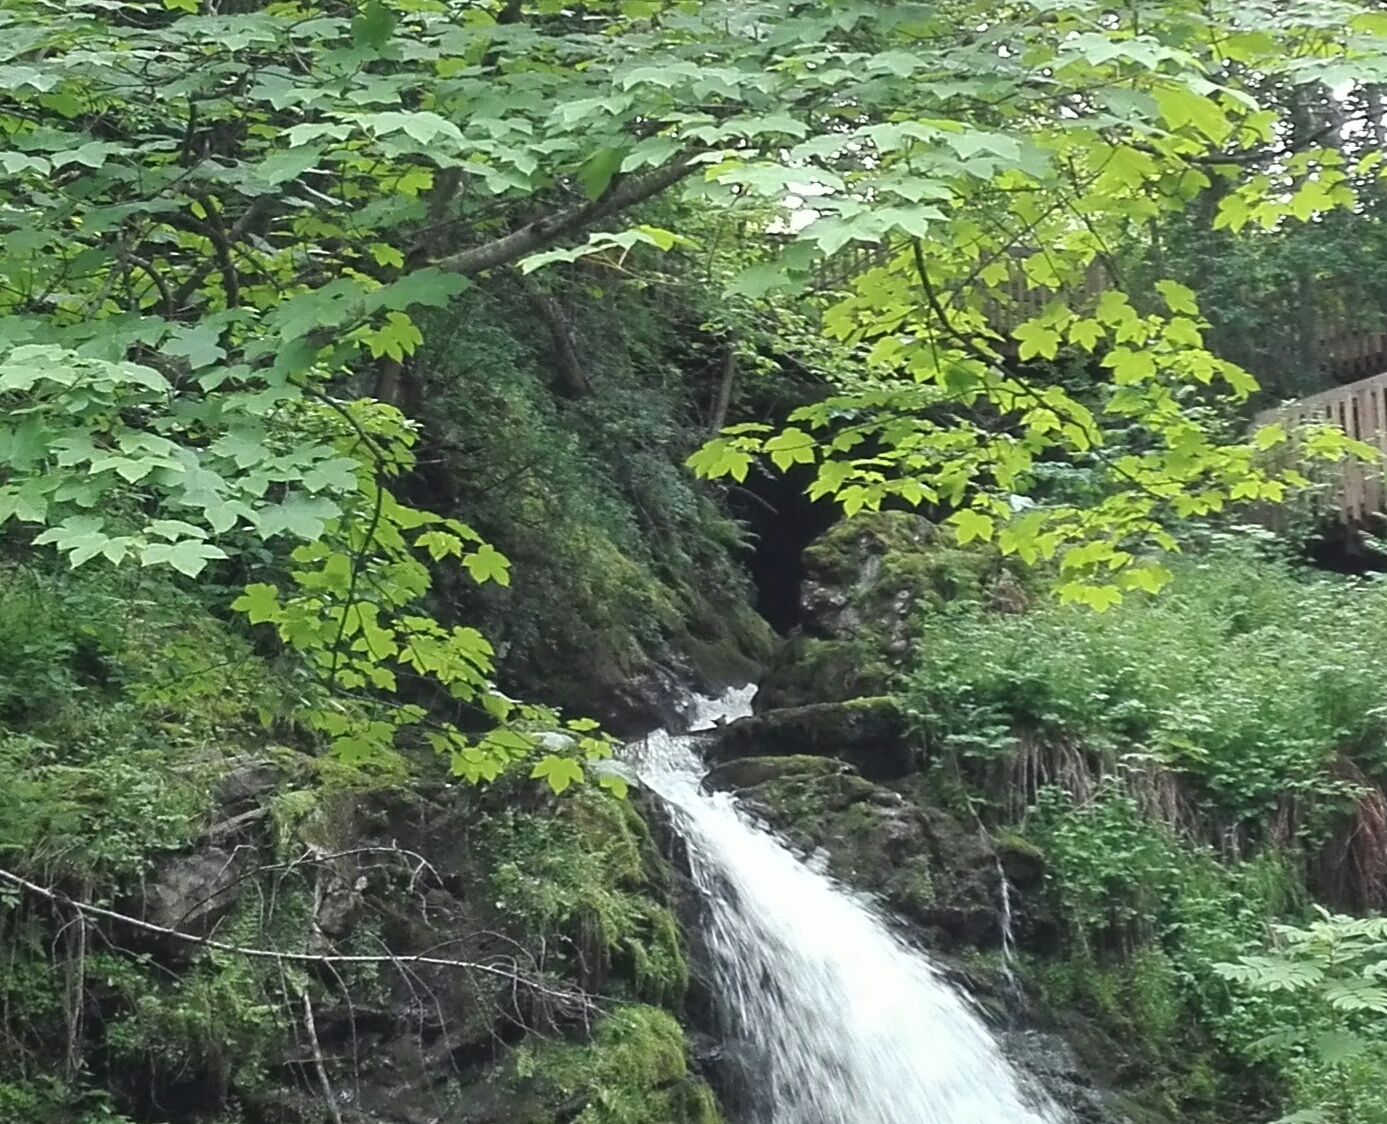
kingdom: Animalia
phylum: Chordata
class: Aves
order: Passeriformes
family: Cinclidae
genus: Cinclus
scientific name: Cinclus cinclus
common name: White-throated dipper
